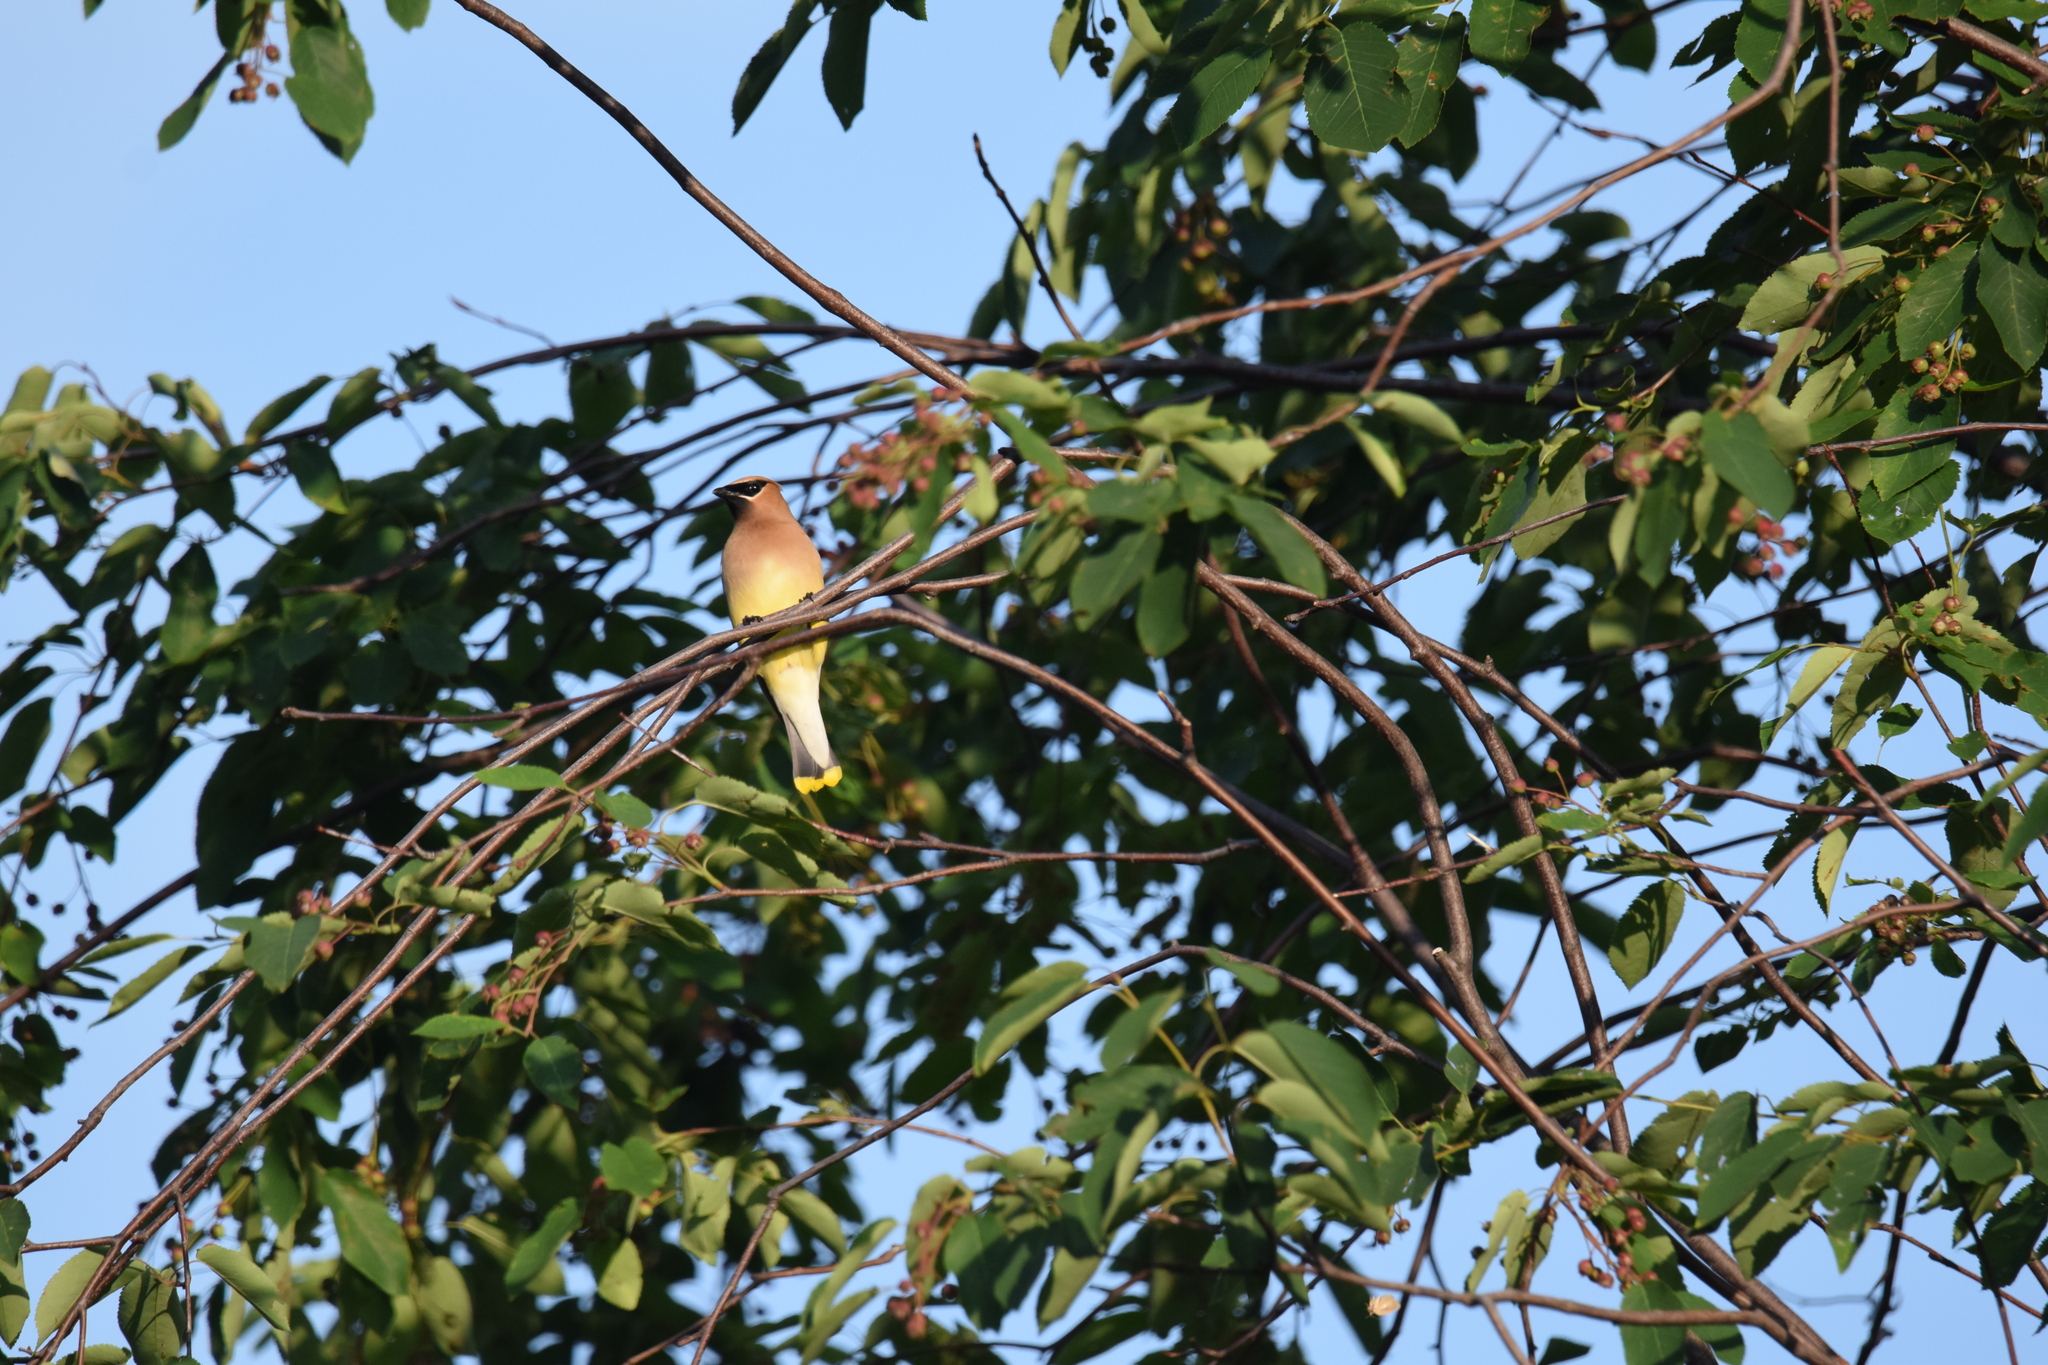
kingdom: Animalia
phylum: Chordata
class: Aves
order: Passeriformes
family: Bombycillidae
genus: Bombycilla
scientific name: Bombycilla cedrorum
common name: Cedar waxwing
